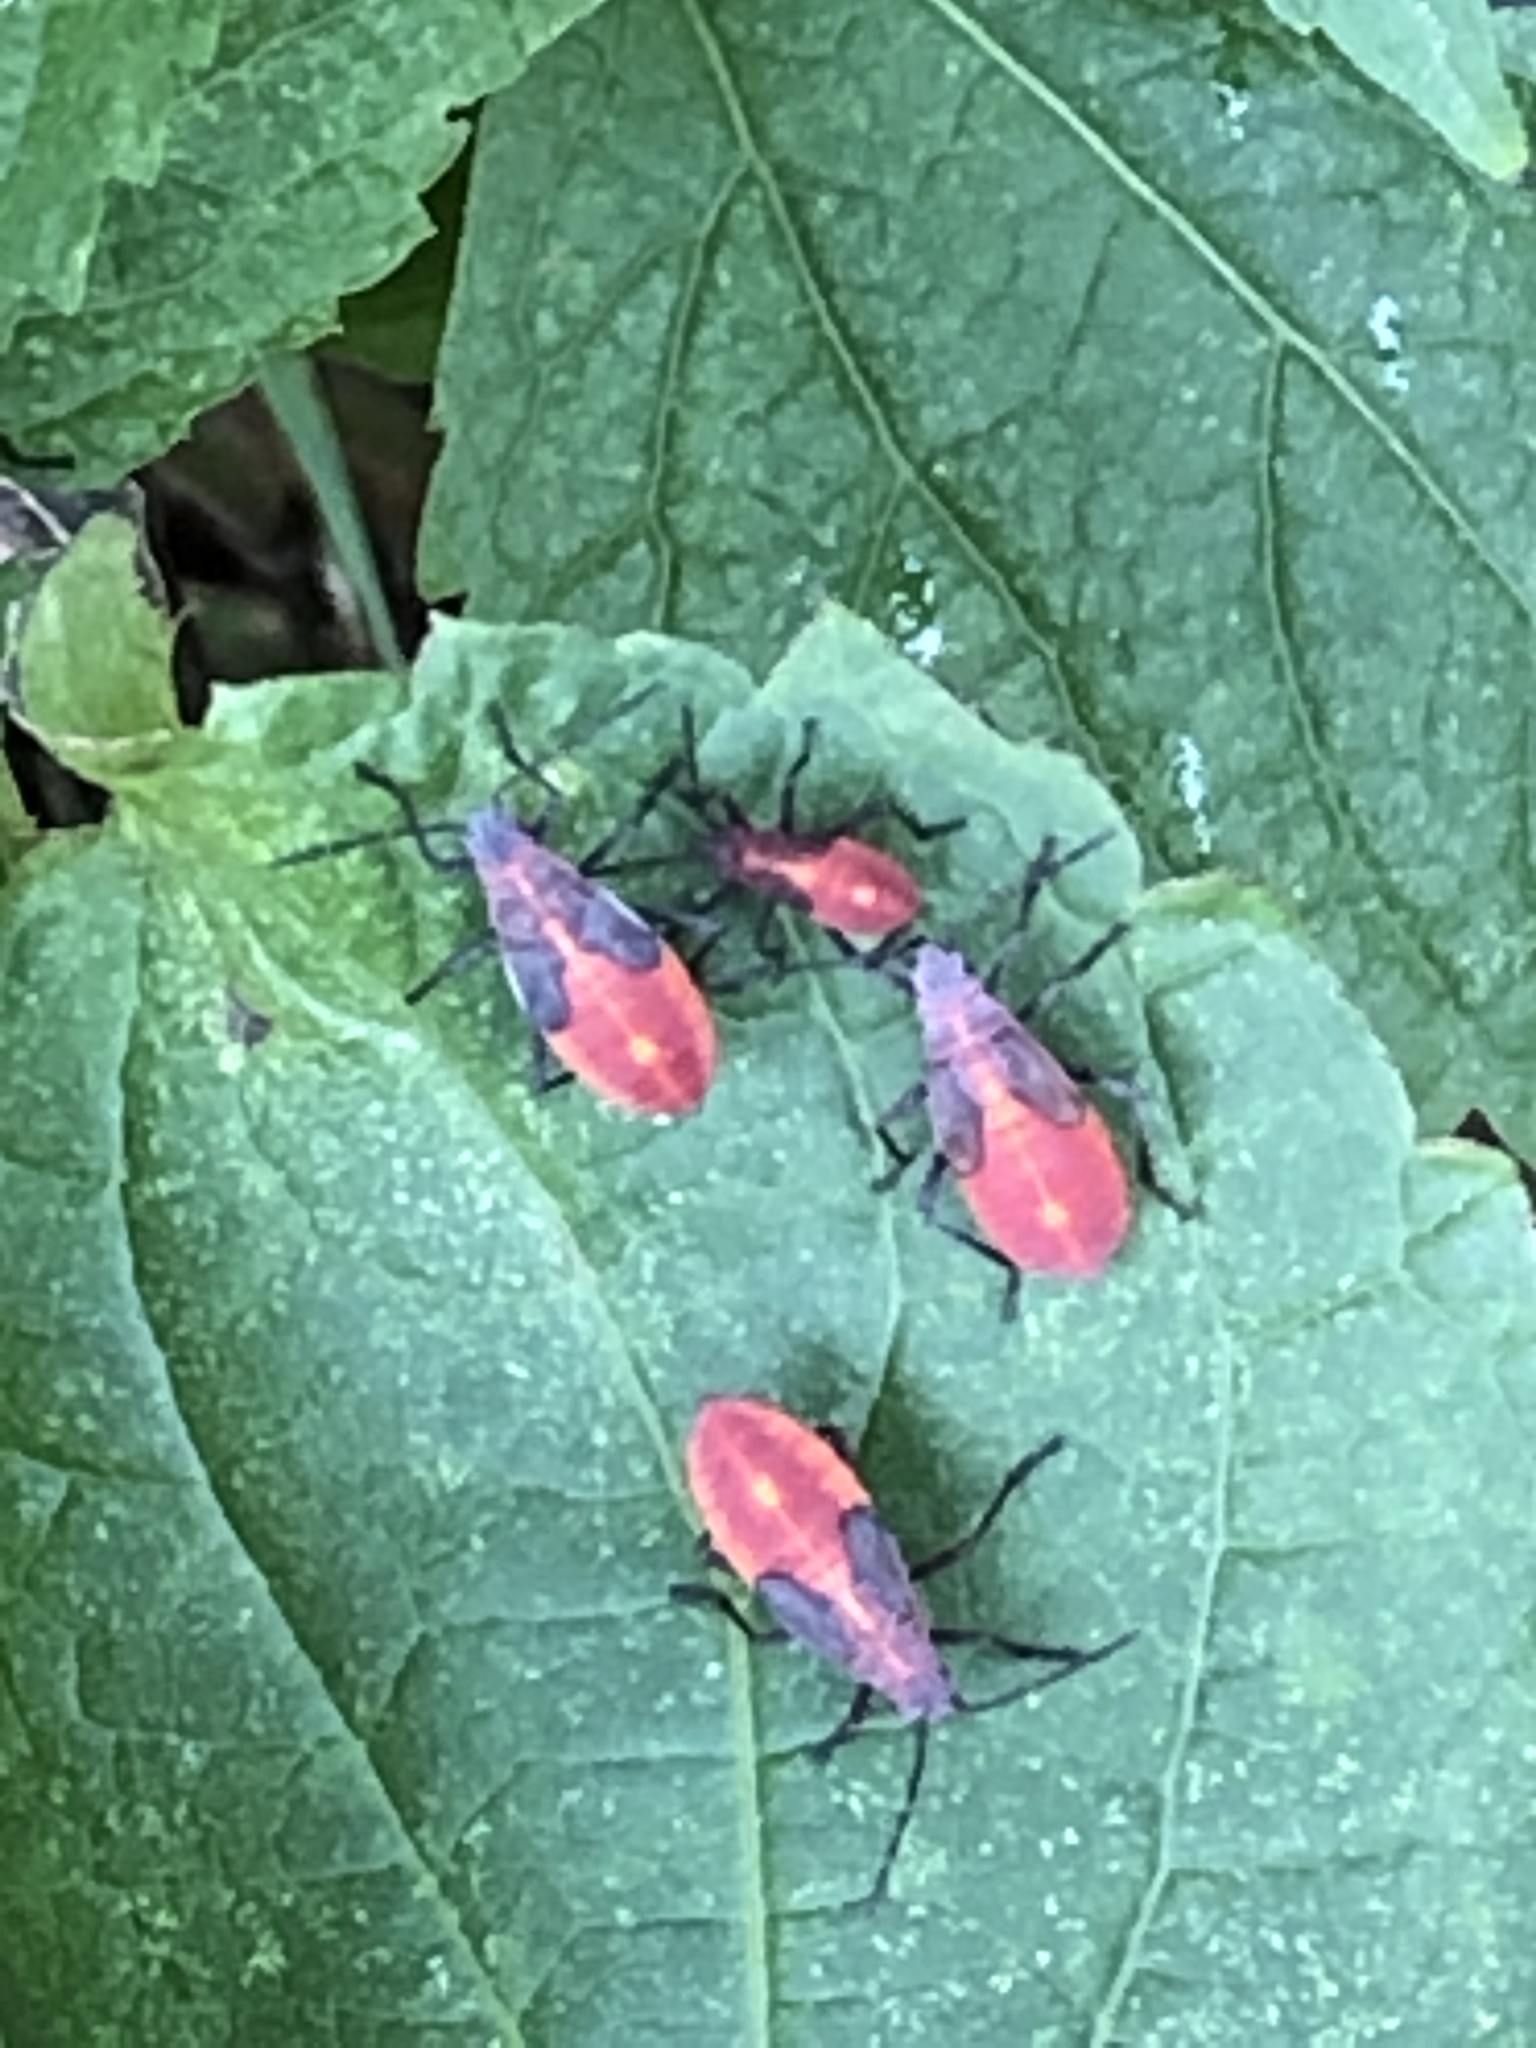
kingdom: Animalia
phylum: Arthropoda
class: Insecta
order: Hemiptera
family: Rhopalidae
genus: Boisea
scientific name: Boisea trivittata
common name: Boxelder bug
